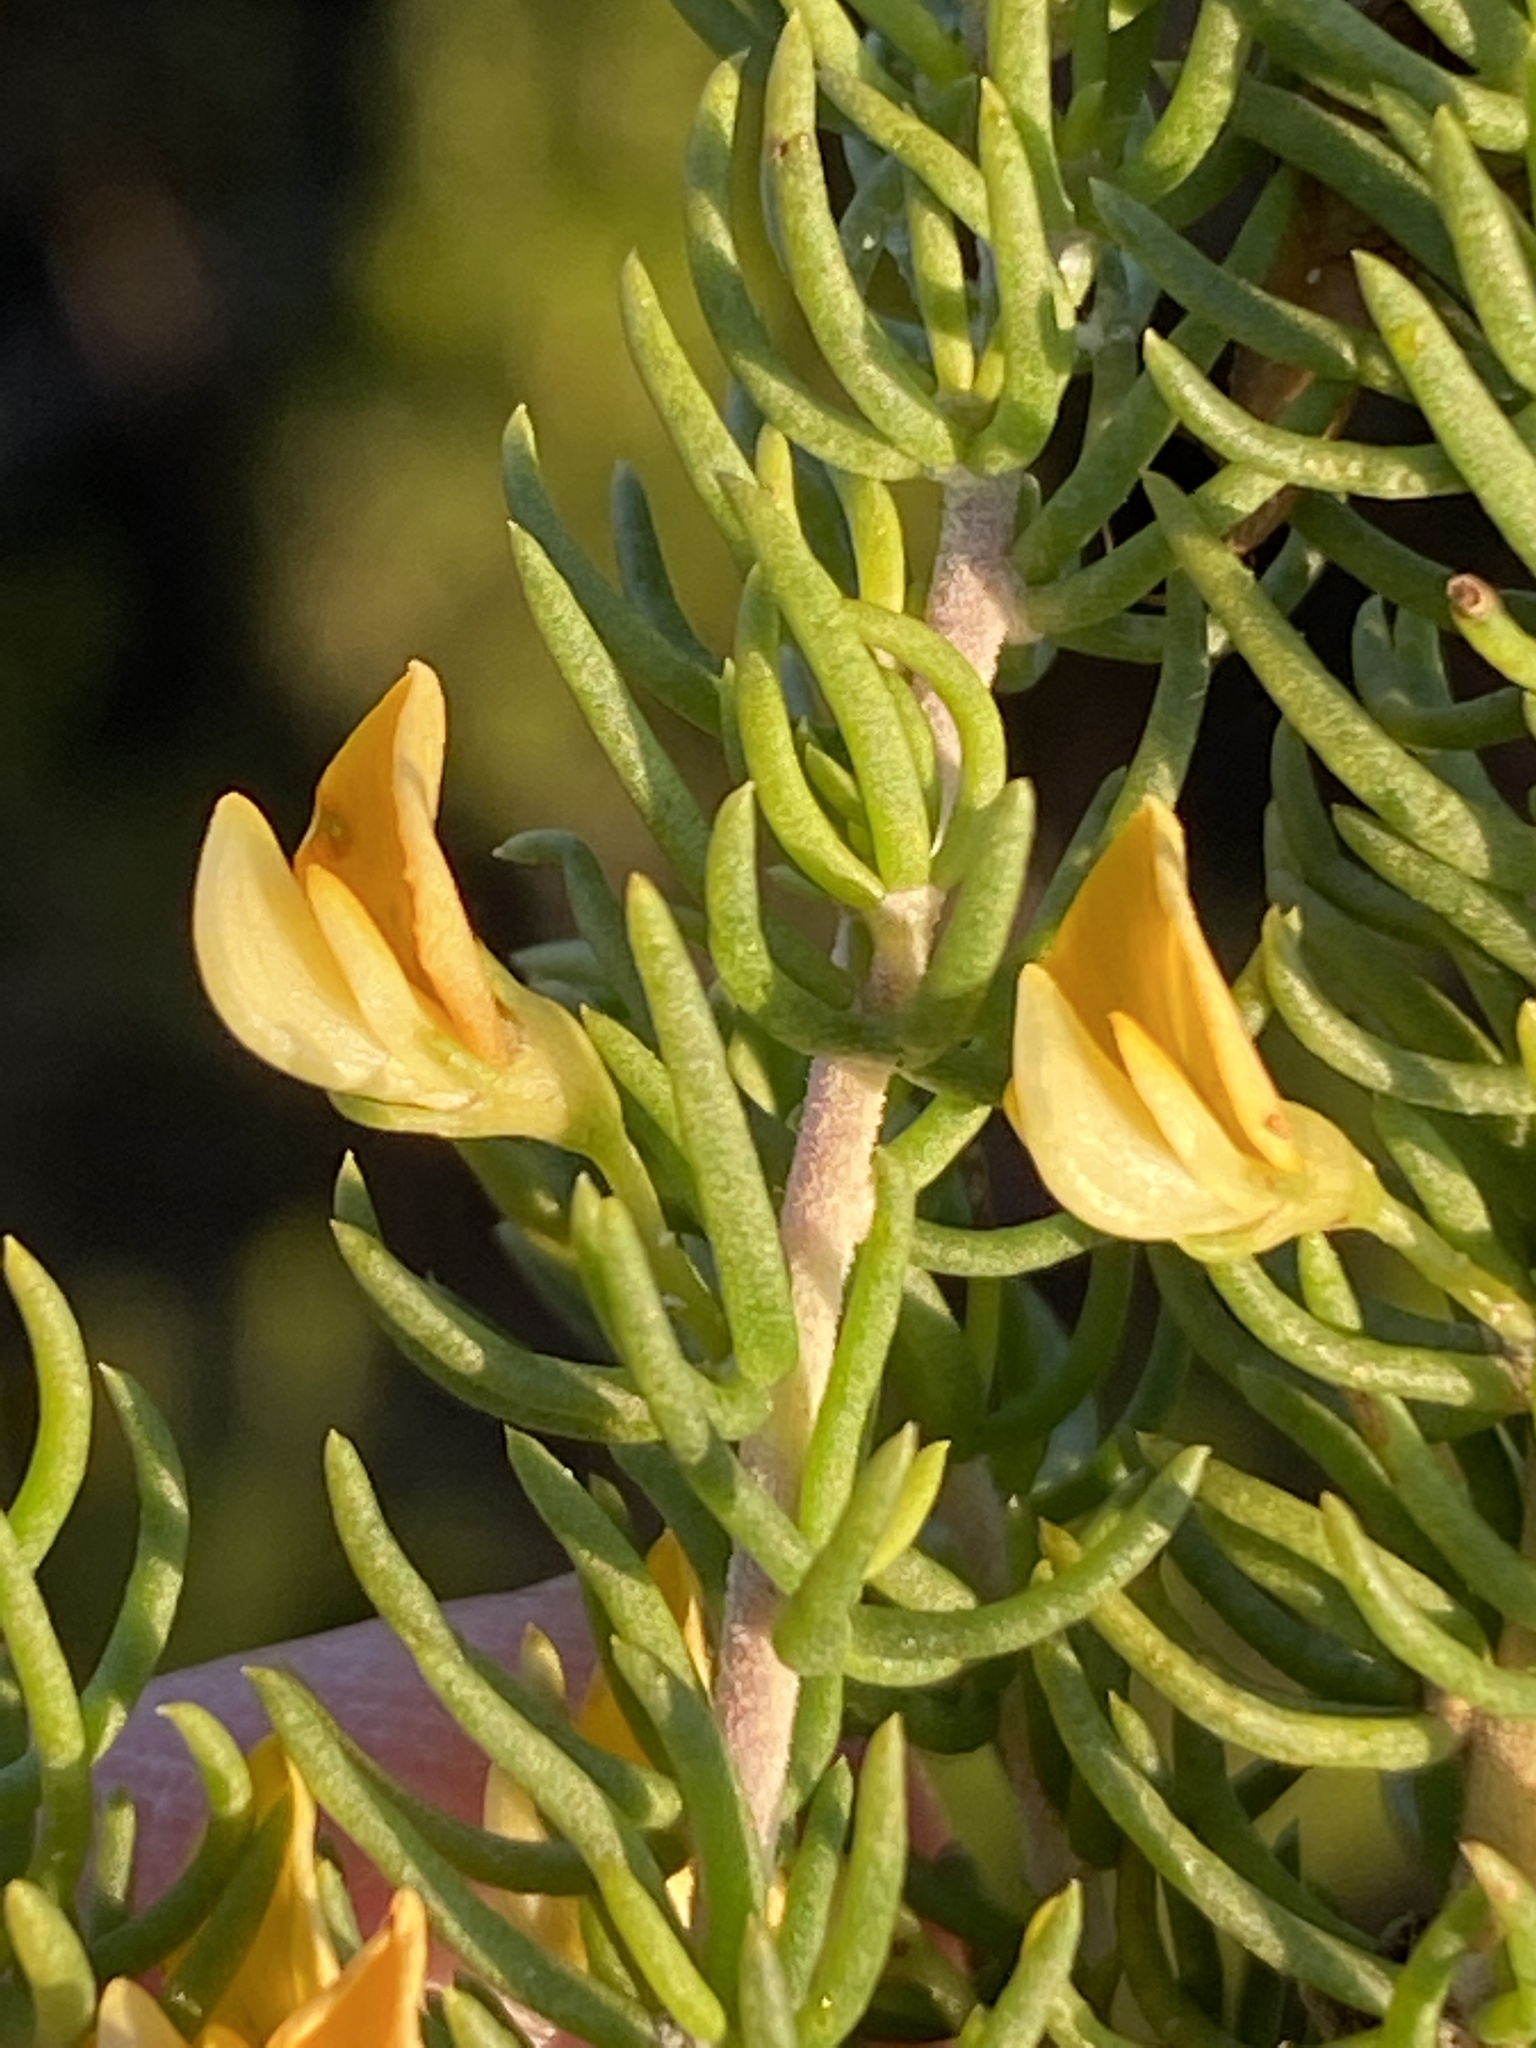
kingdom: Plantae
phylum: Tracheophyta
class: Magnoliopsida
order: Fabales
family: Fabaceae
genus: Aspalathus
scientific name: Aspalathus sanguinea
